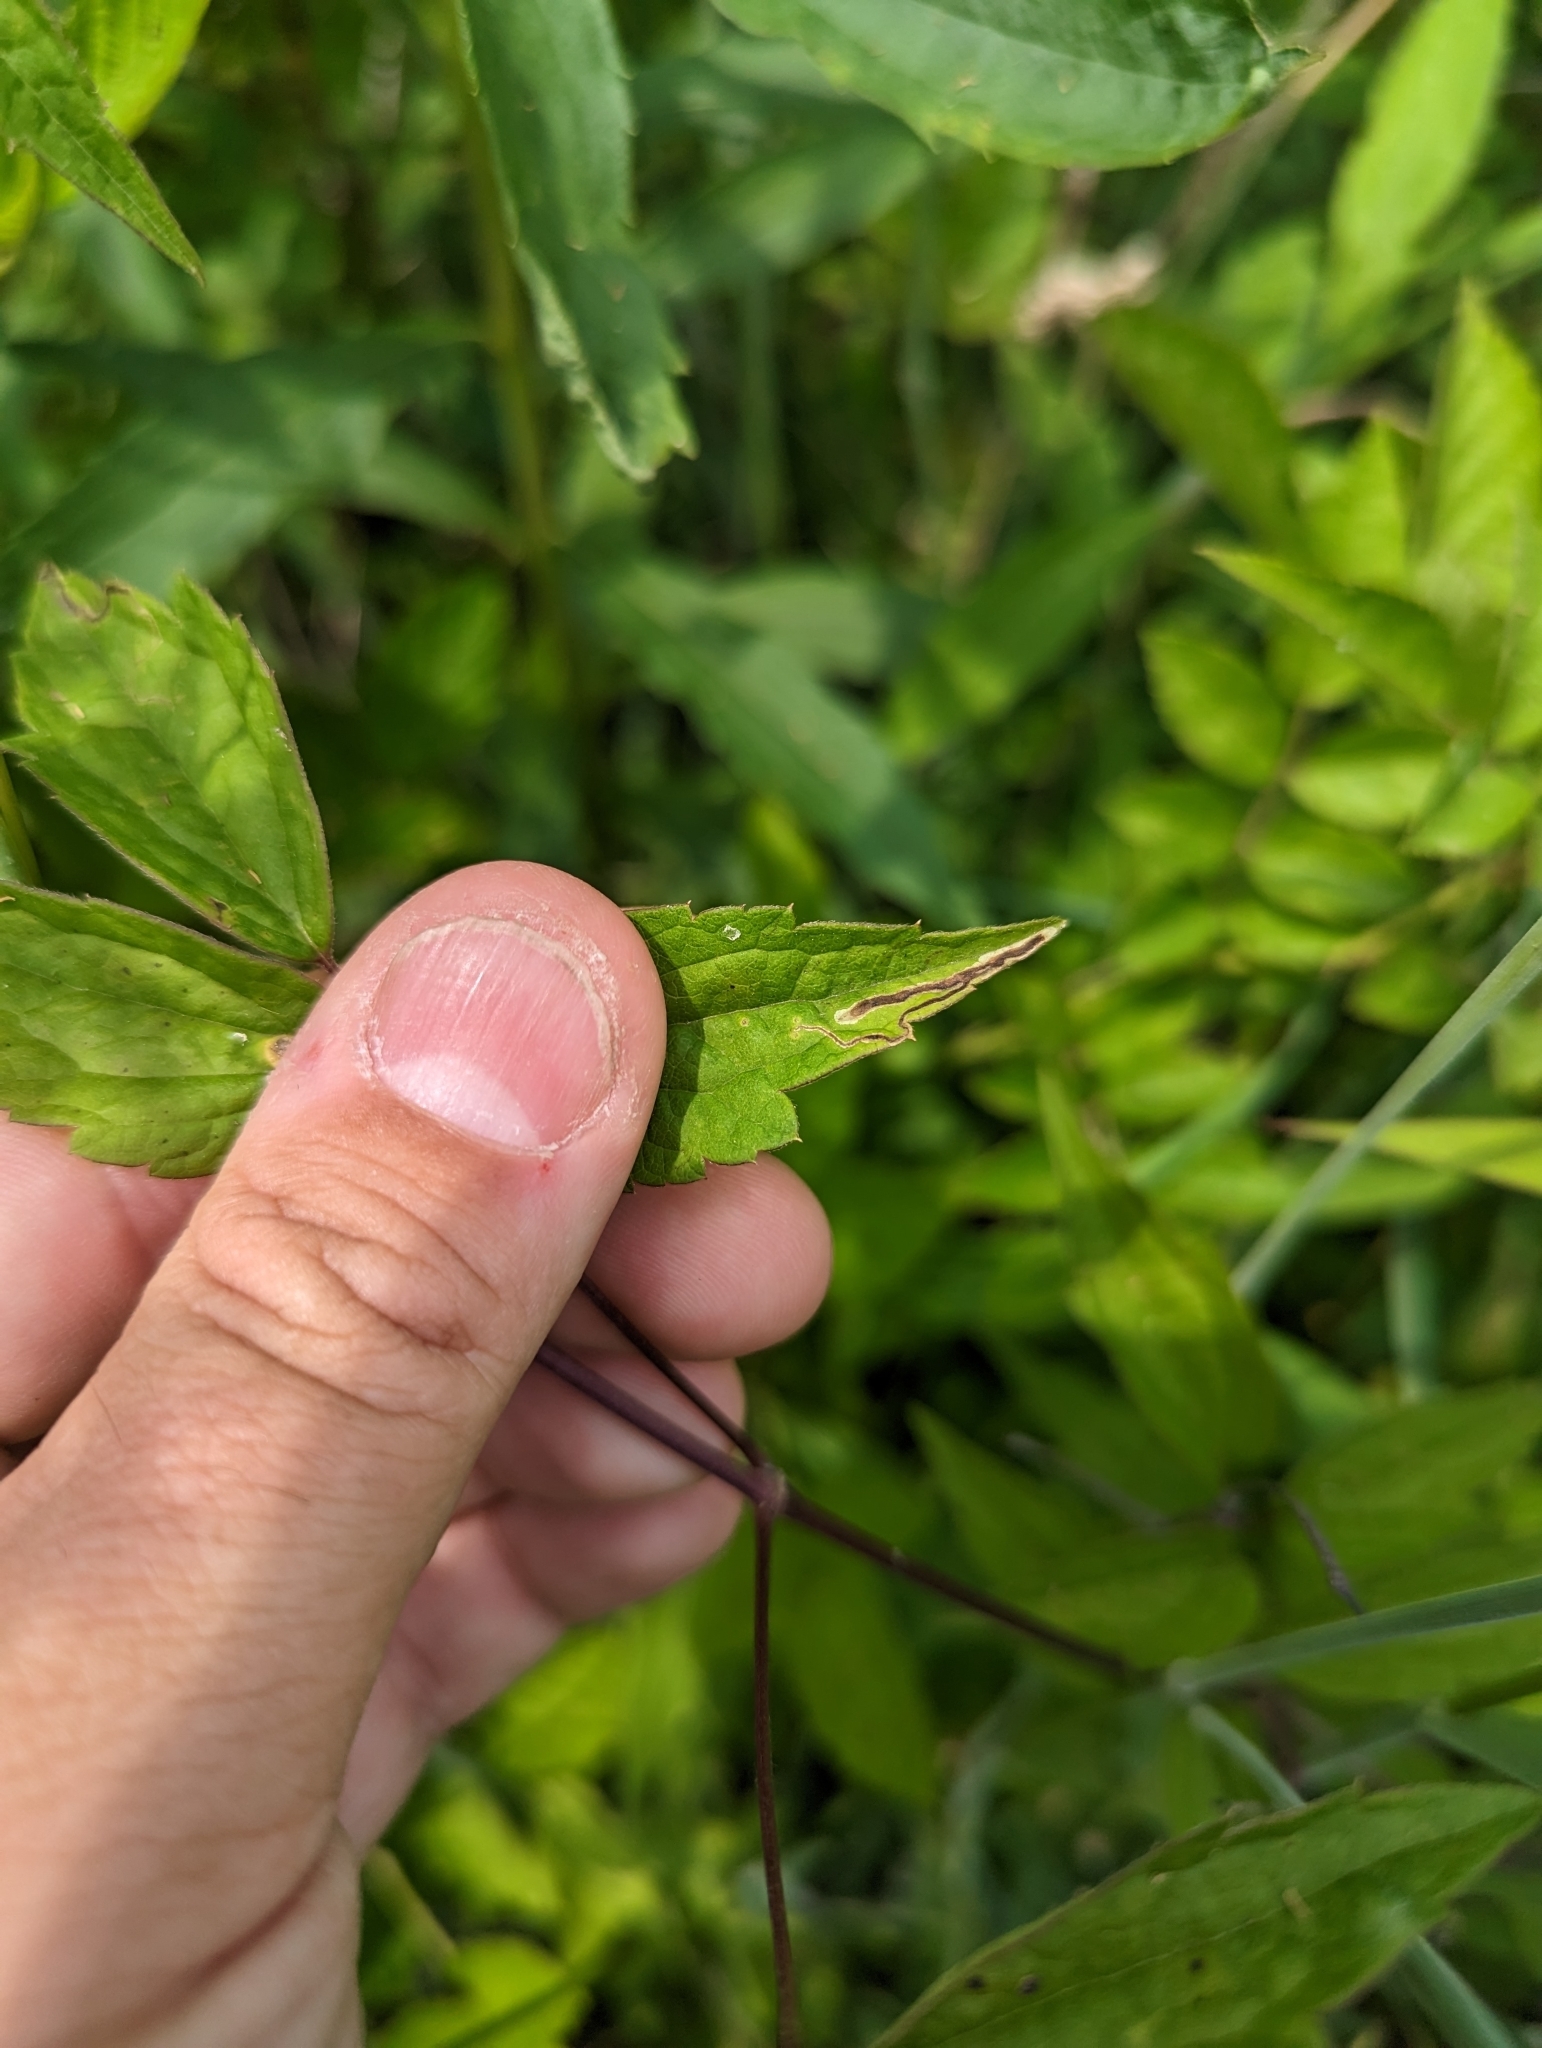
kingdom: Animalia
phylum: Arthropoda
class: Insecta
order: Diptera
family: Agromyzidae
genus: Phytomyza
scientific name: Phytomyza loewii
